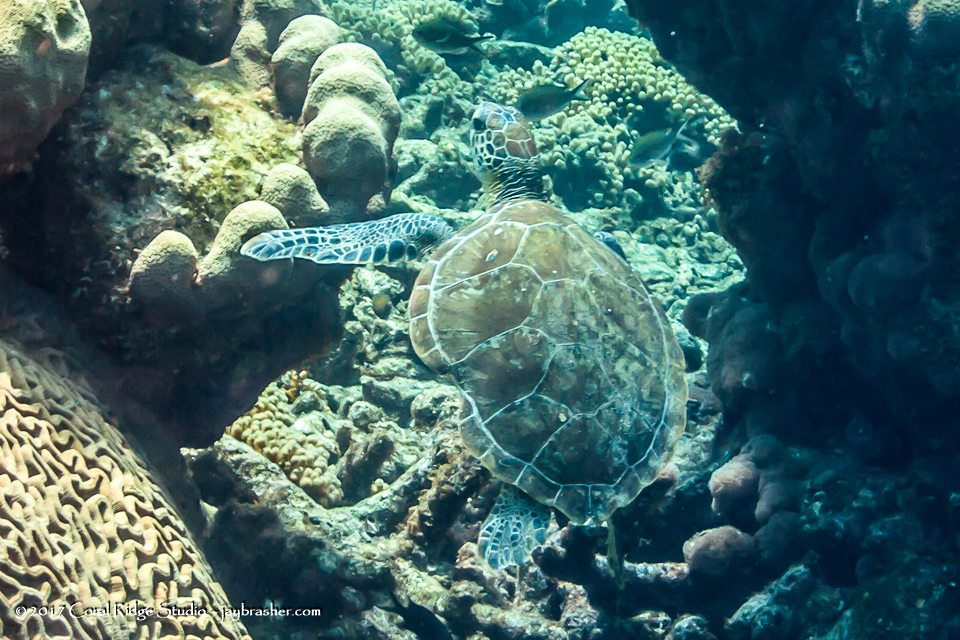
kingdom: Animalia
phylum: Chordata
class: Testudines
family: Cheloniidae
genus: Chelonia
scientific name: Chelonia mydas
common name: Green turtle
